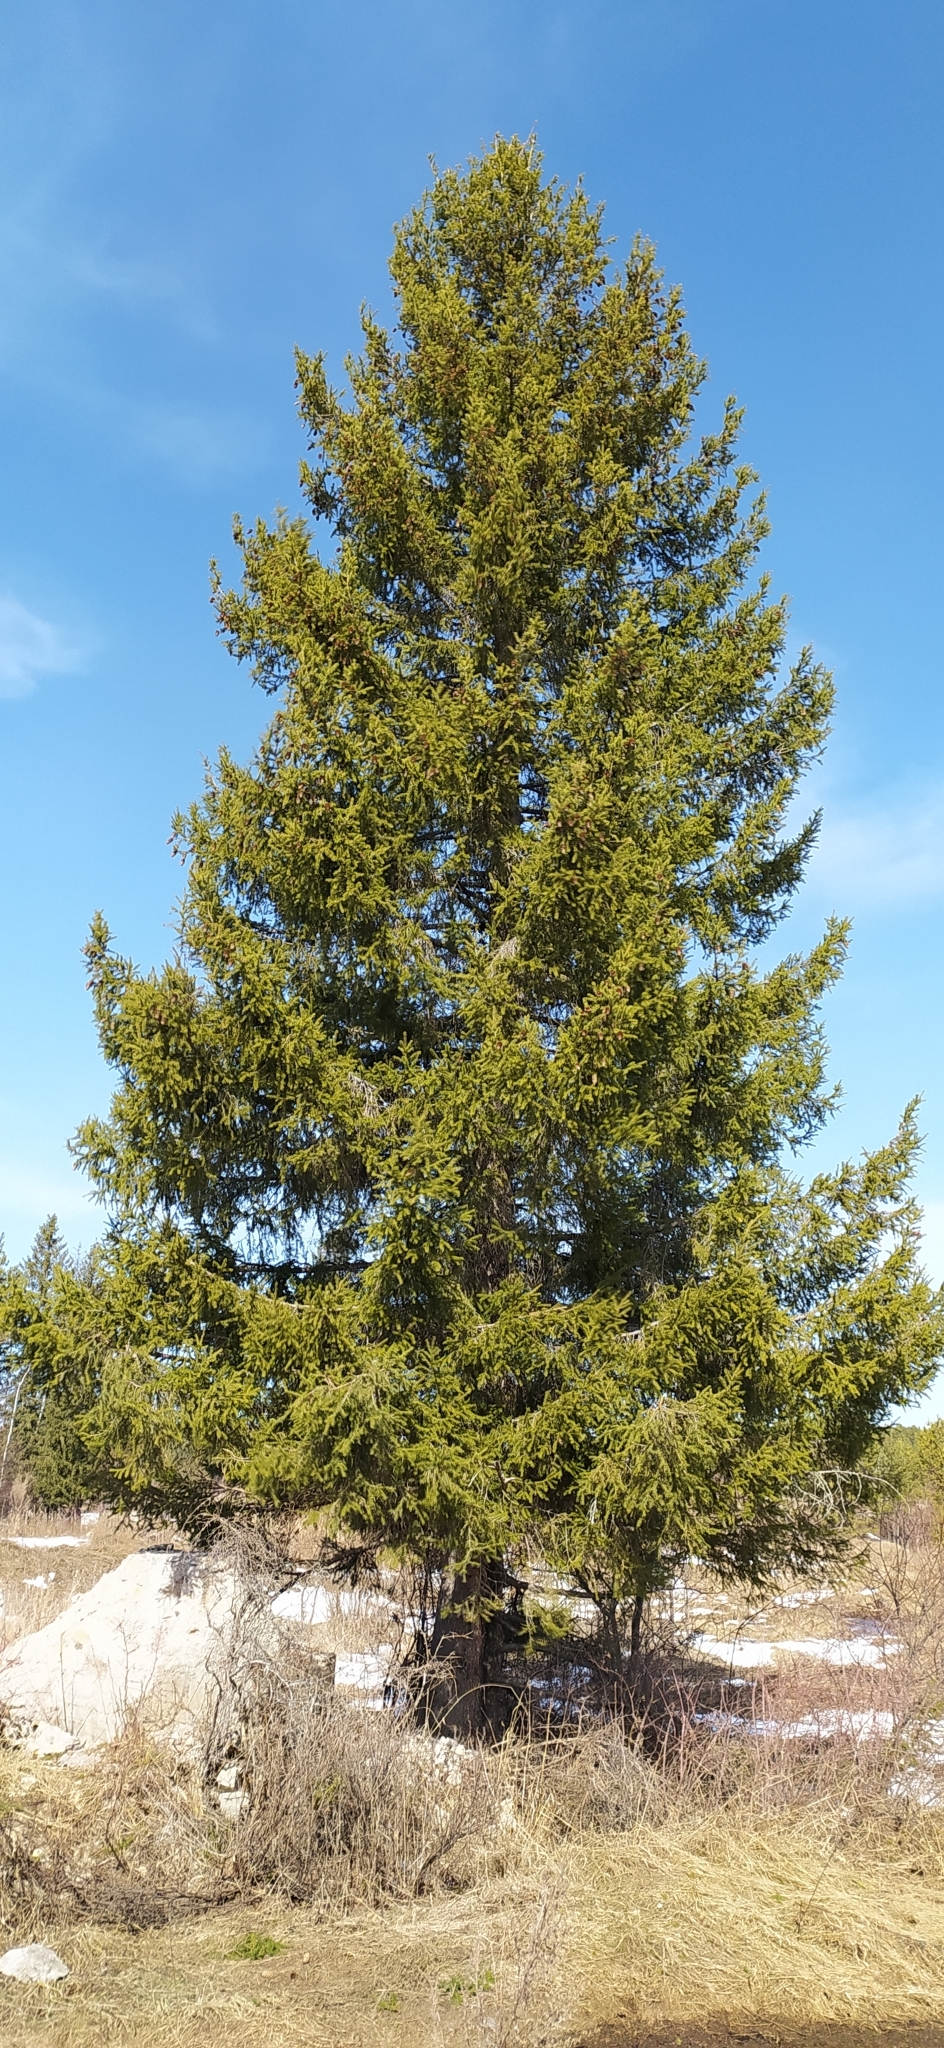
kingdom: Plantae
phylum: Tracheophyta
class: Pinopsida
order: Pinales
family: Pinaceae
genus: Picea
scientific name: Picea obovata
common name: Siberian spruce
